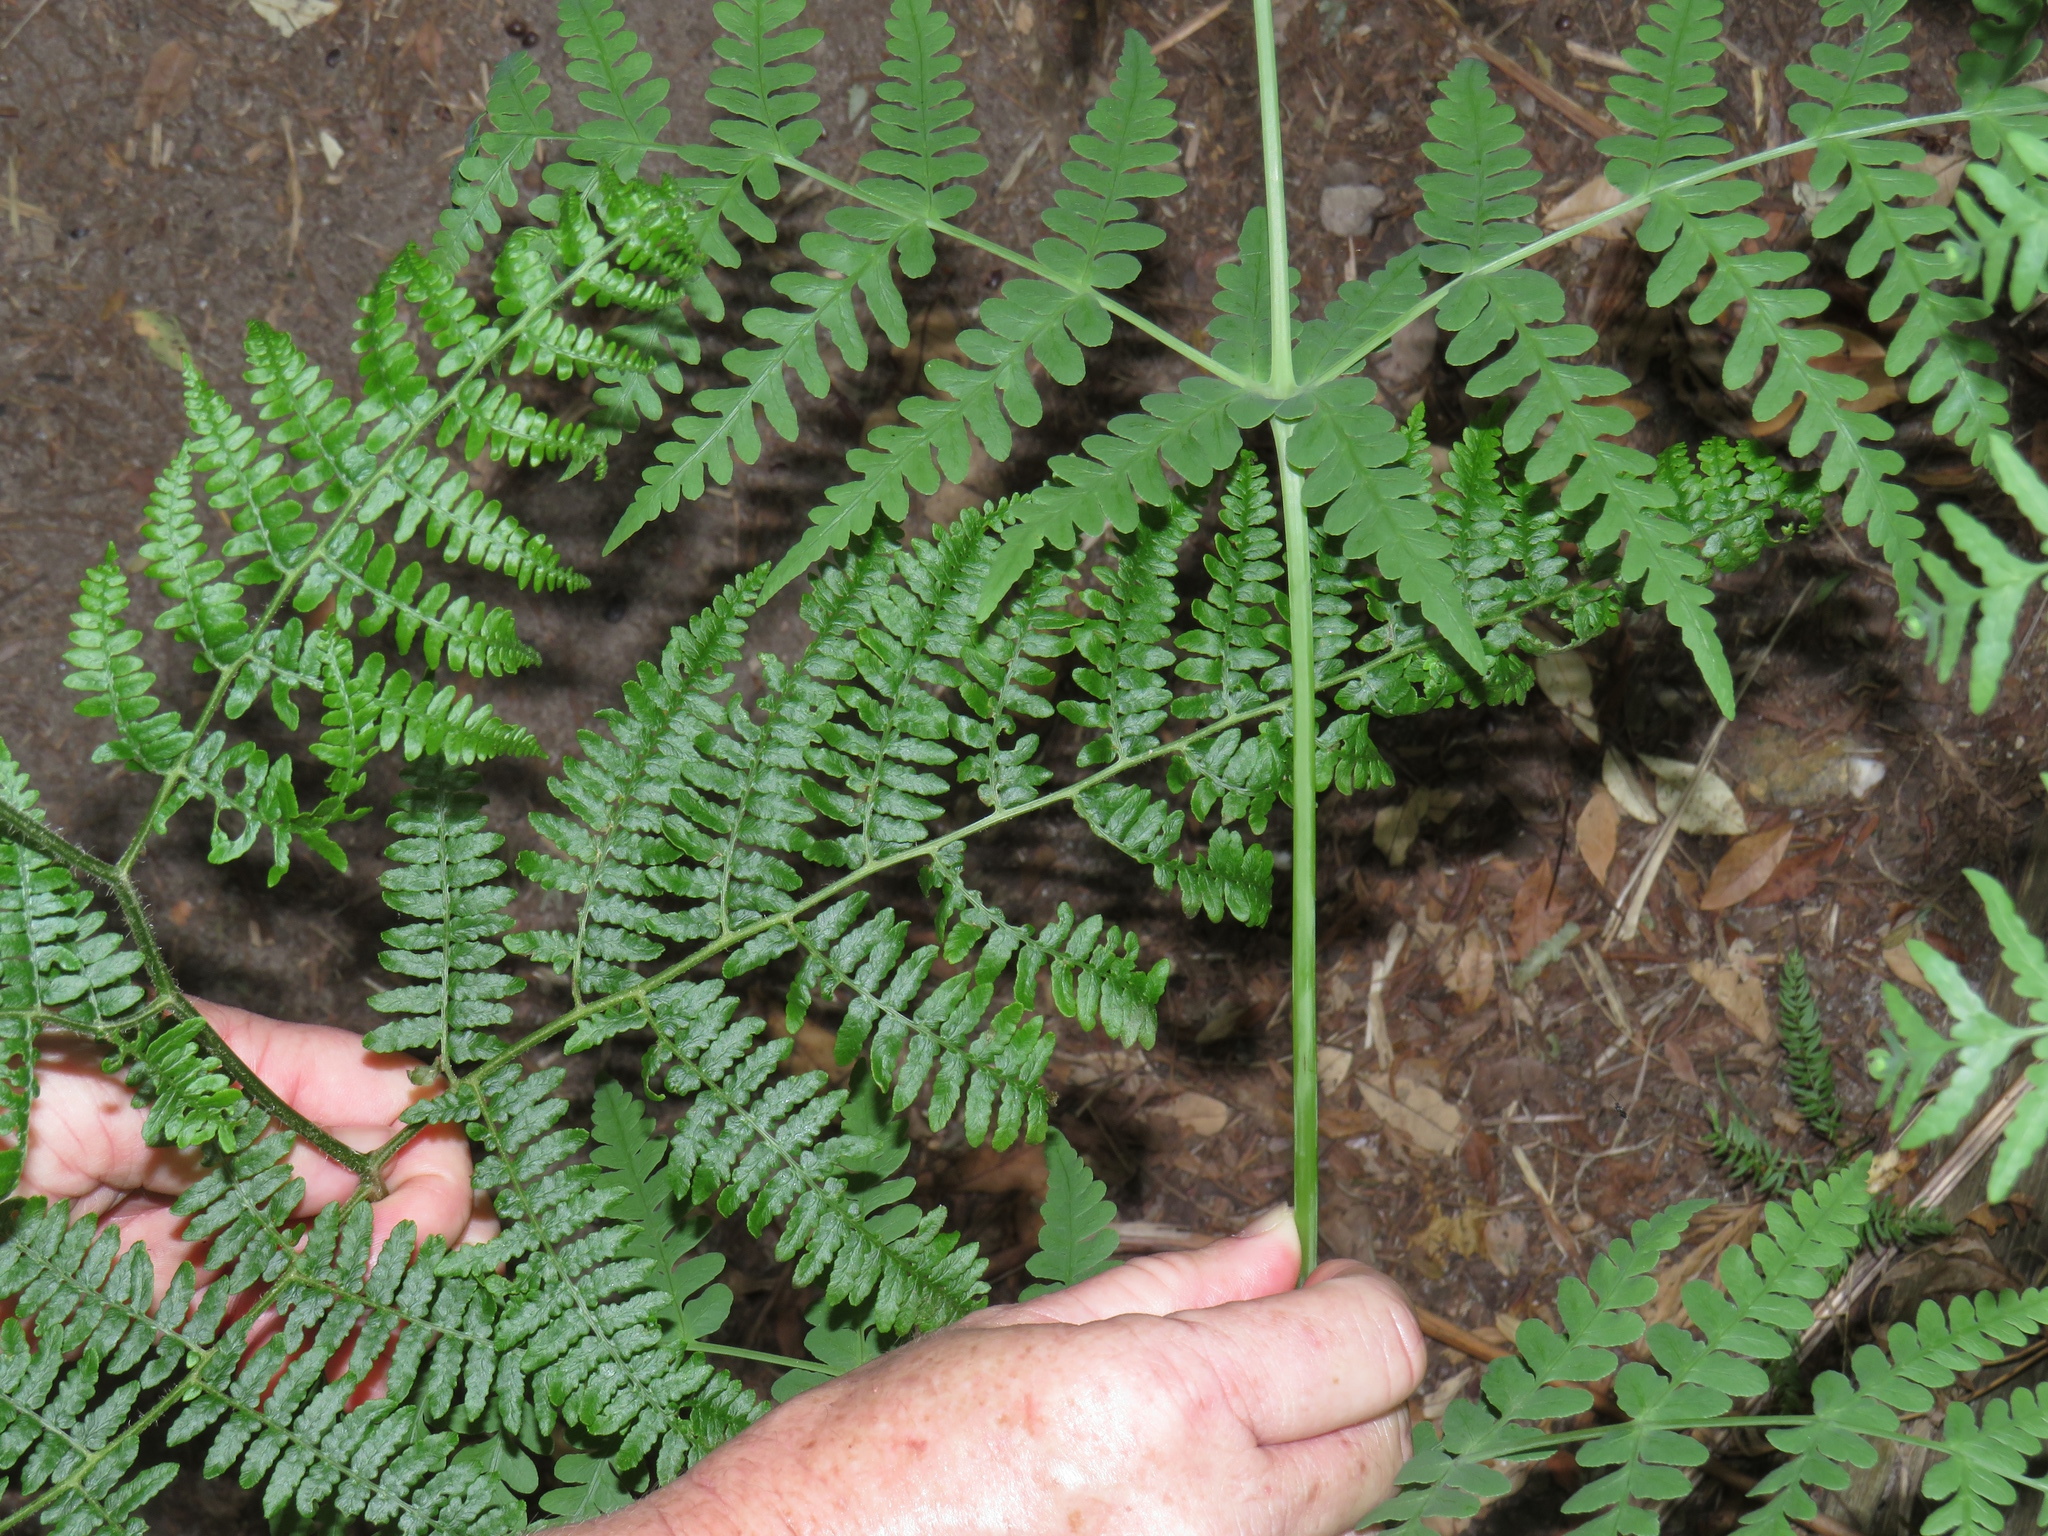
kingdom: Plantae
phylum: Tracheophyta
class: Polypodiopsida
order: Polypodiales
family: Dennstaedtiaceae
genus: Histiopteris
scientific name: Histiopteris incisa
